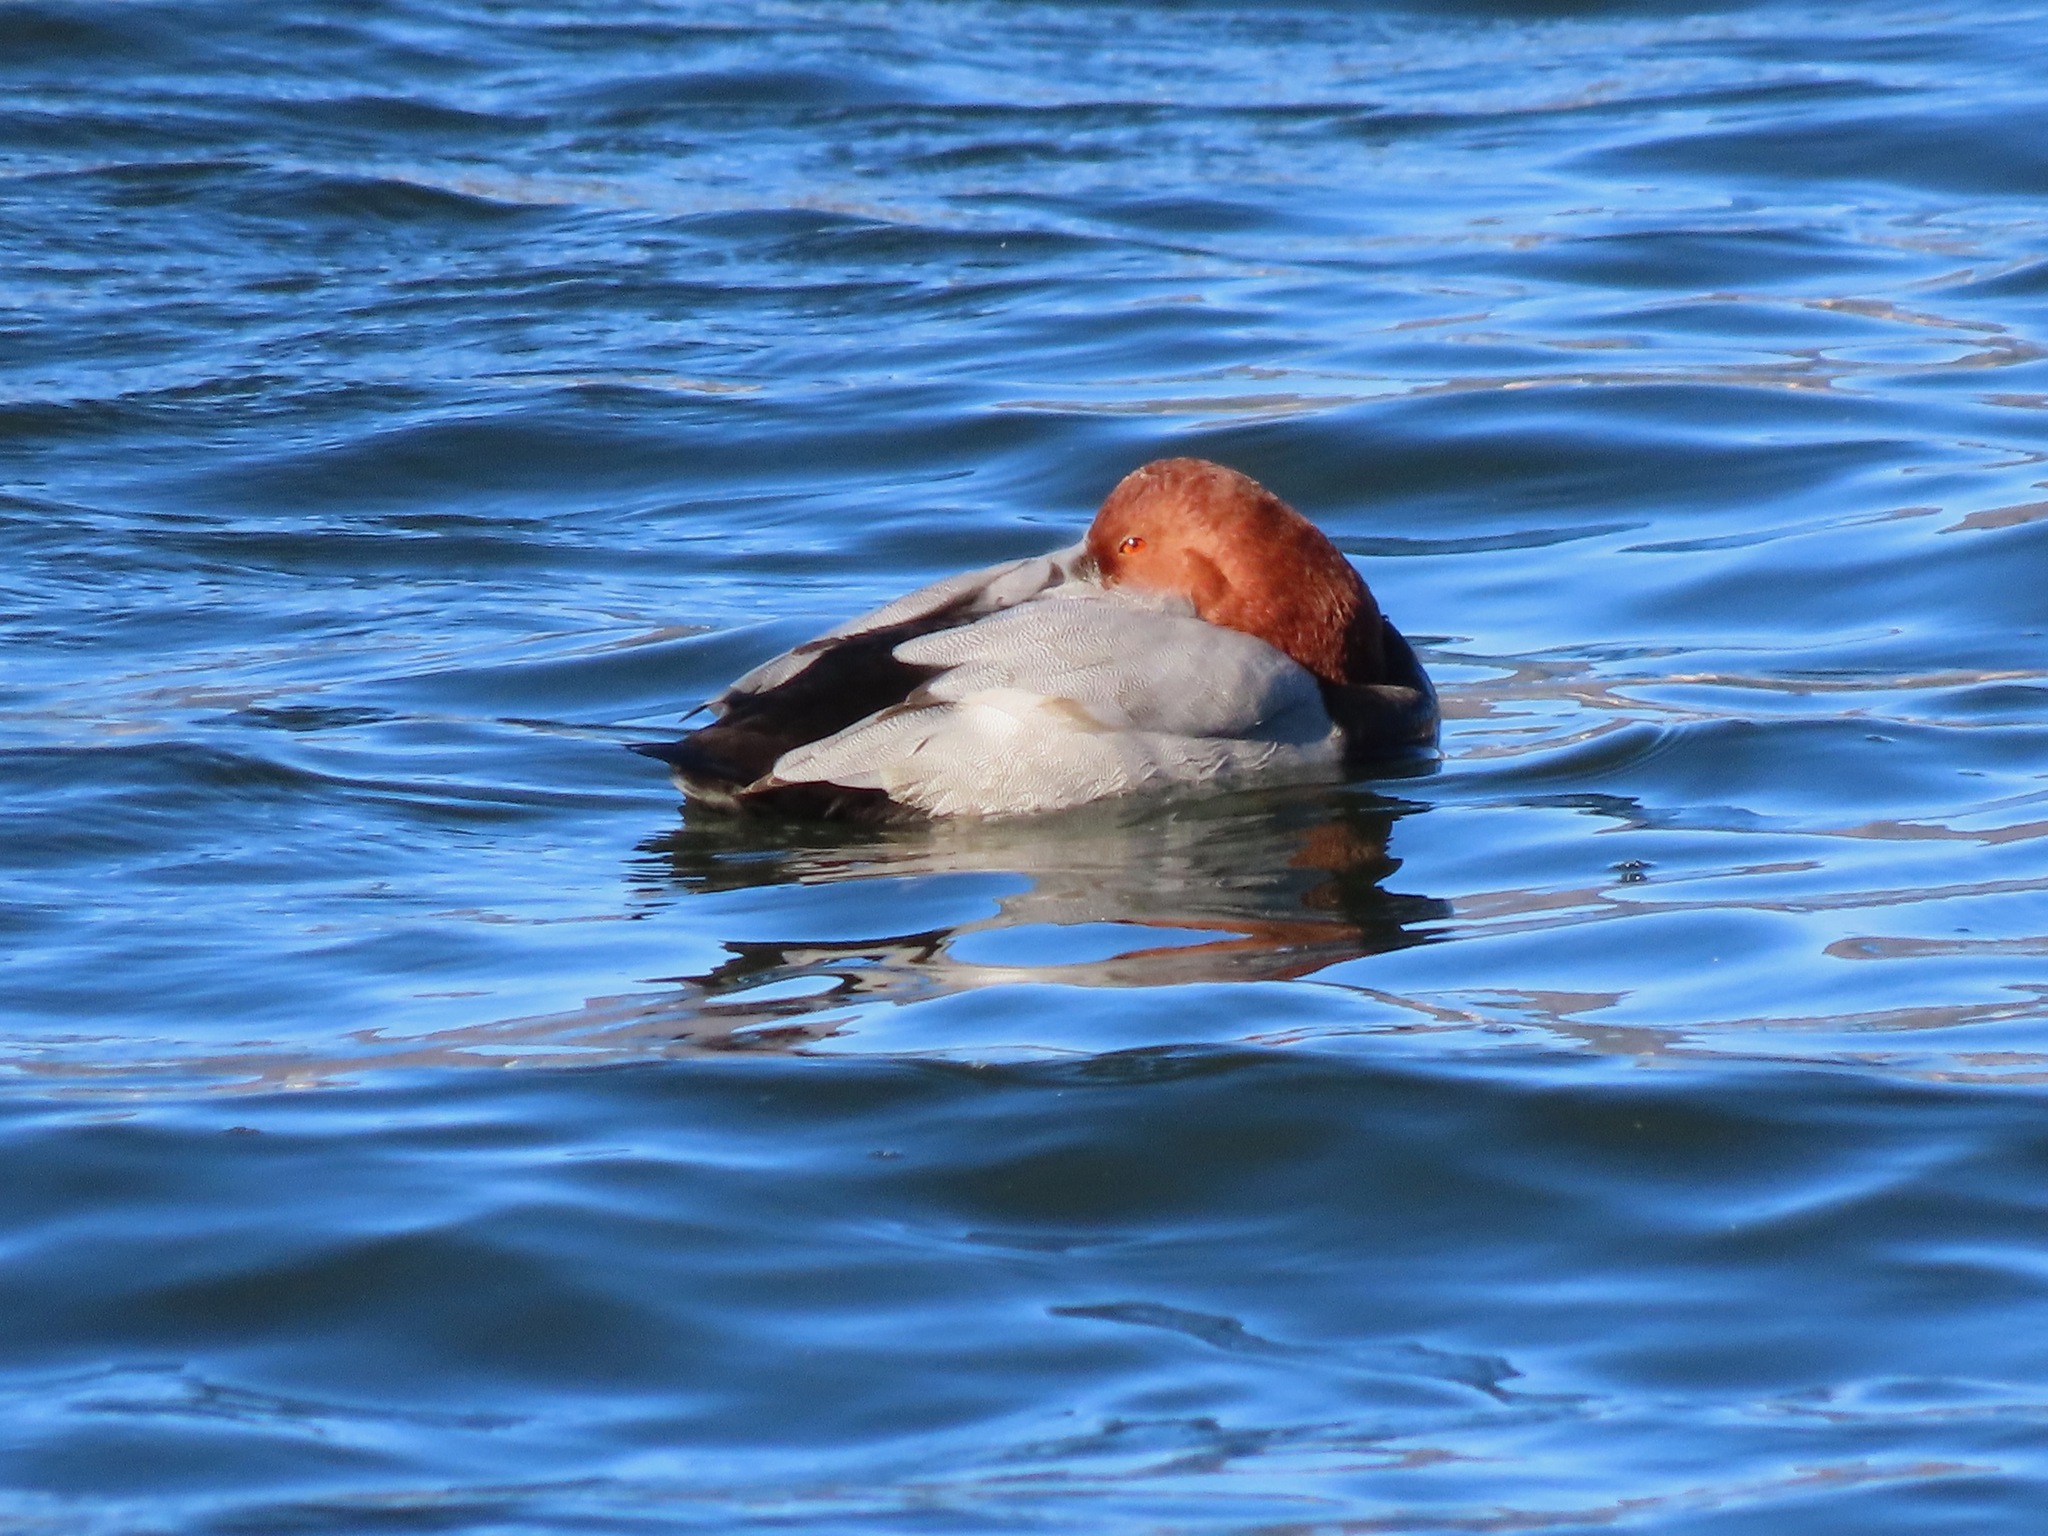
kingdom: Animalia
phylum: Chordata
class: Aves
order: Anseriformes
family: Anatidae
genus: Aythya
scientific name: Aythya ferina
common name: Common pochard
